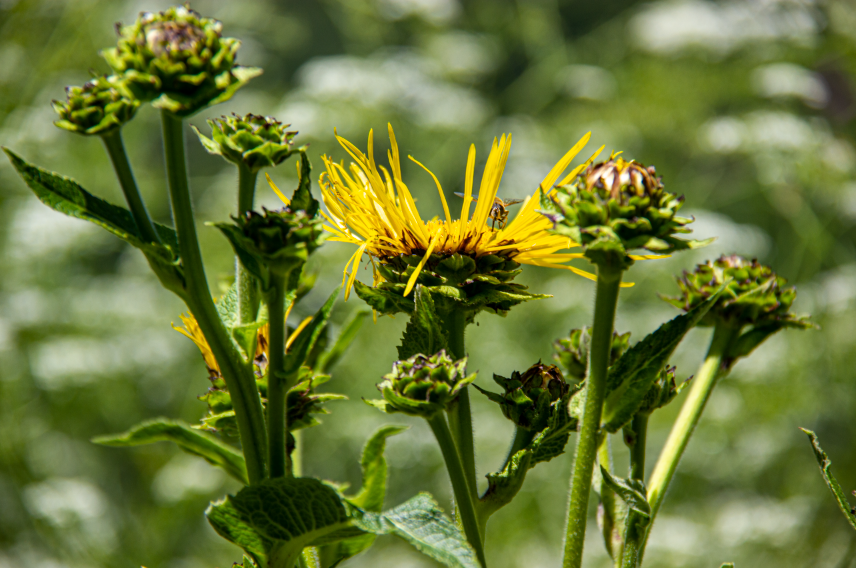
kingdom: Plantae
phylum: Tracheophyta
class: Magnoliopsida
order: Asterales
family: Asteraceae
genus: Inula
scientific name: Inula helenium
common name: Elecampane
